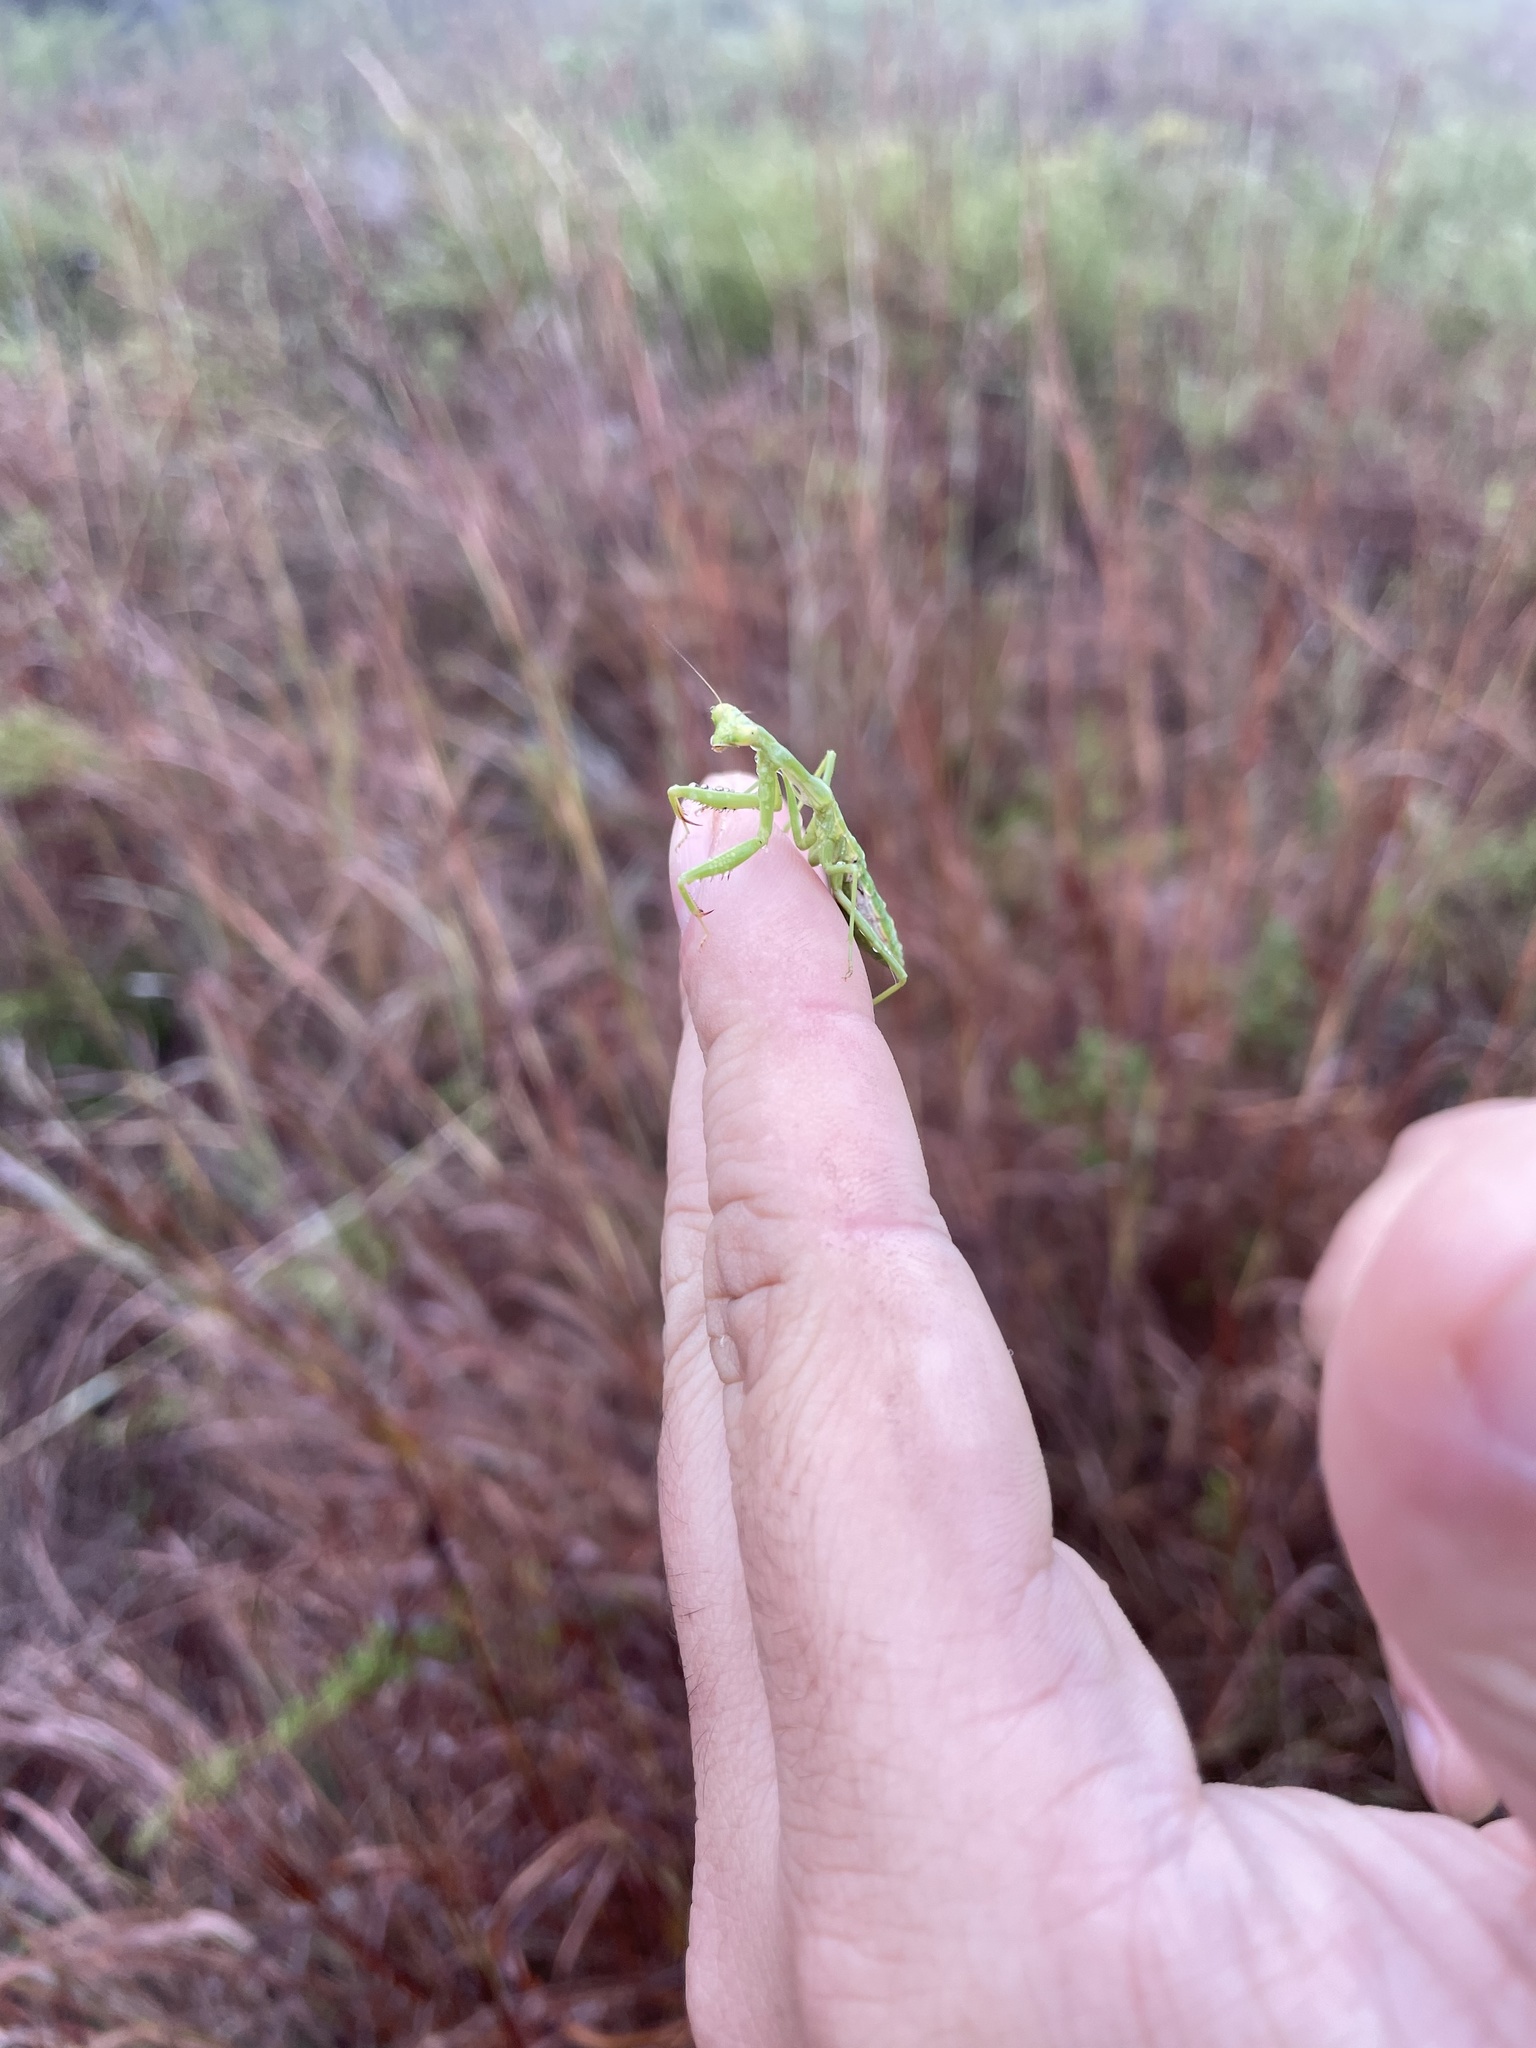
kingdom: Animalia
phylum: Arthropoda
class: Insecta
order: Mantodea
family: Mantidae
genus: Stagmomantis
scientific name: Stagmomantis carolina
